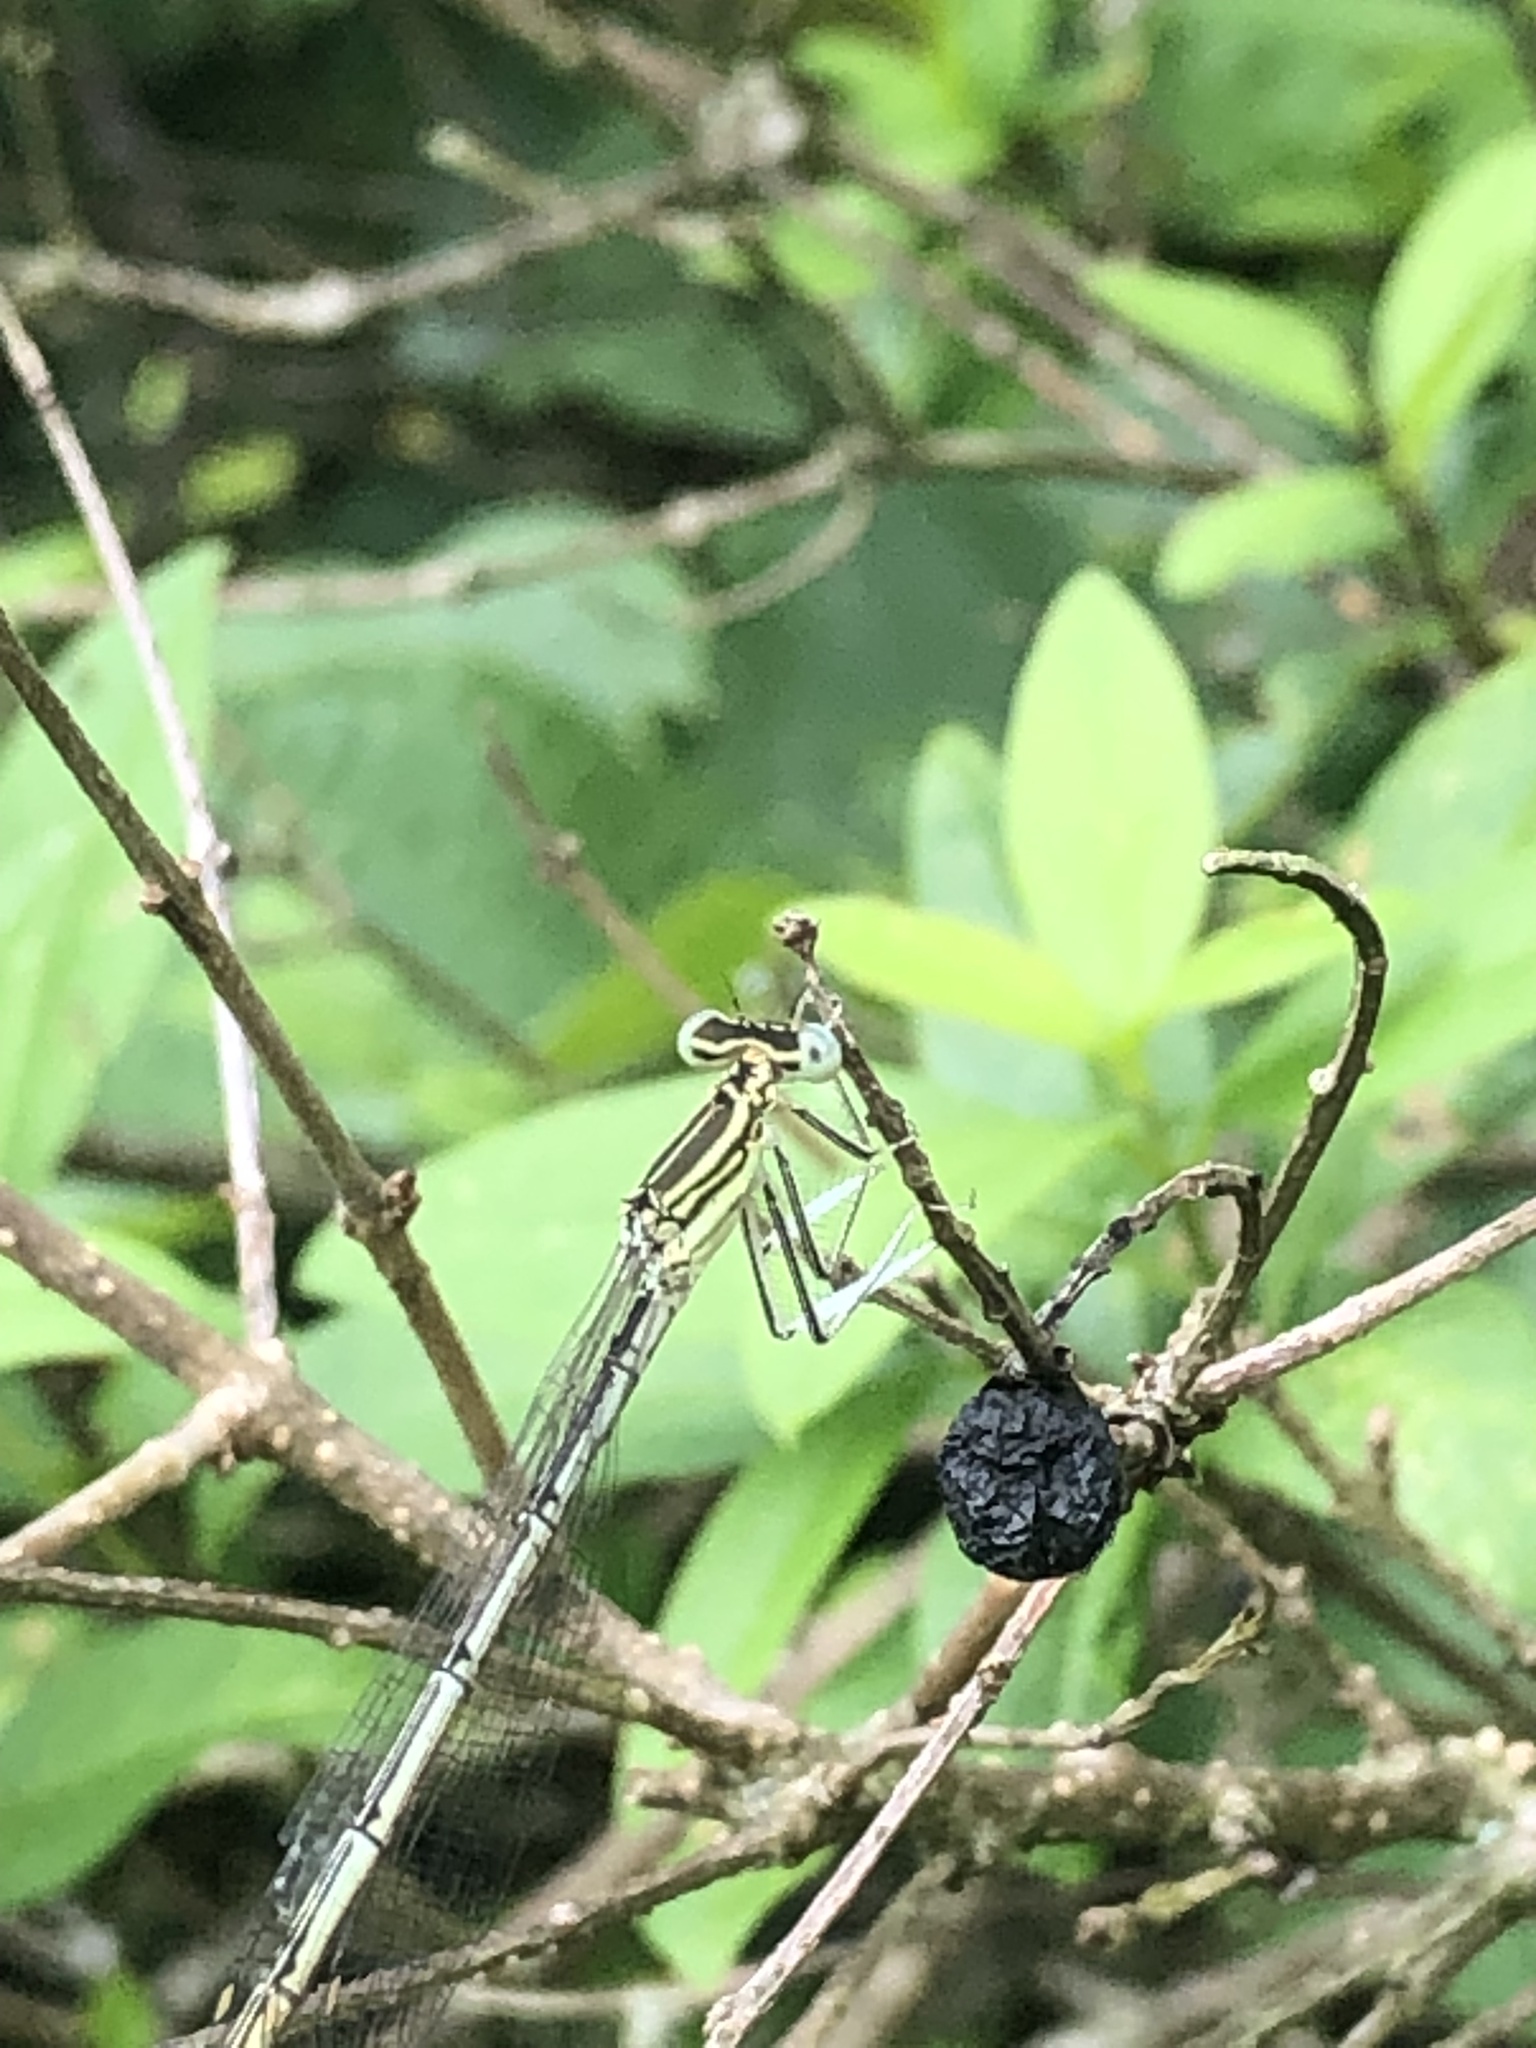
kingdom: Animalia
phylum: Arthropoda
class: Insecta
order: Odonata
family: Platycnemididae
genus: Platycnemis
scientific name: Platycnemis pennipes
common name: White-legged damselfly
